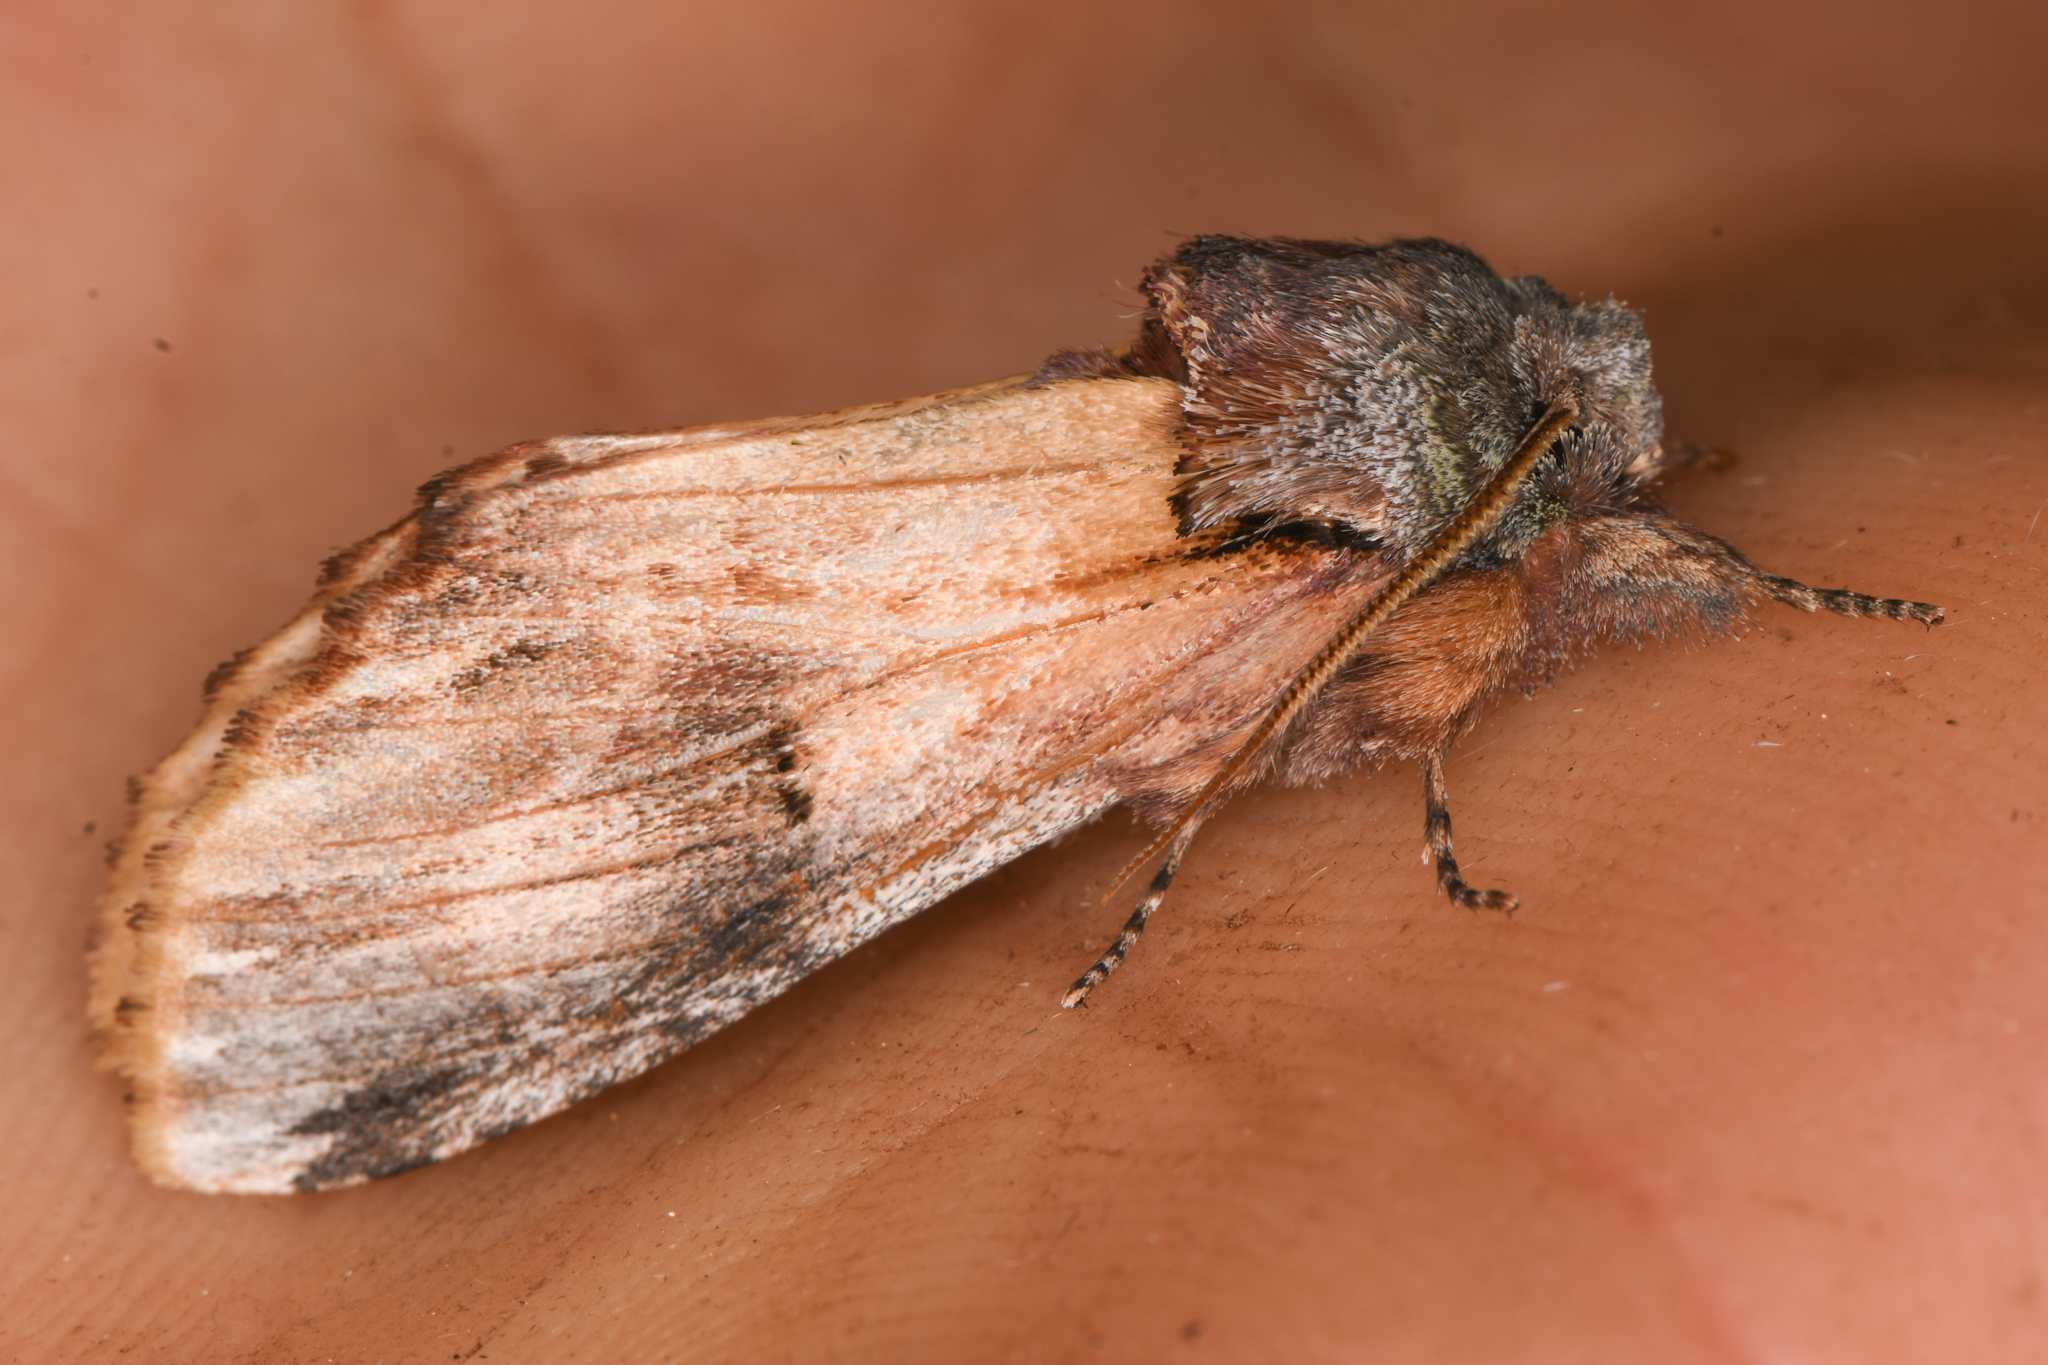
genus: Ianassa
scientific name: Ianassa
